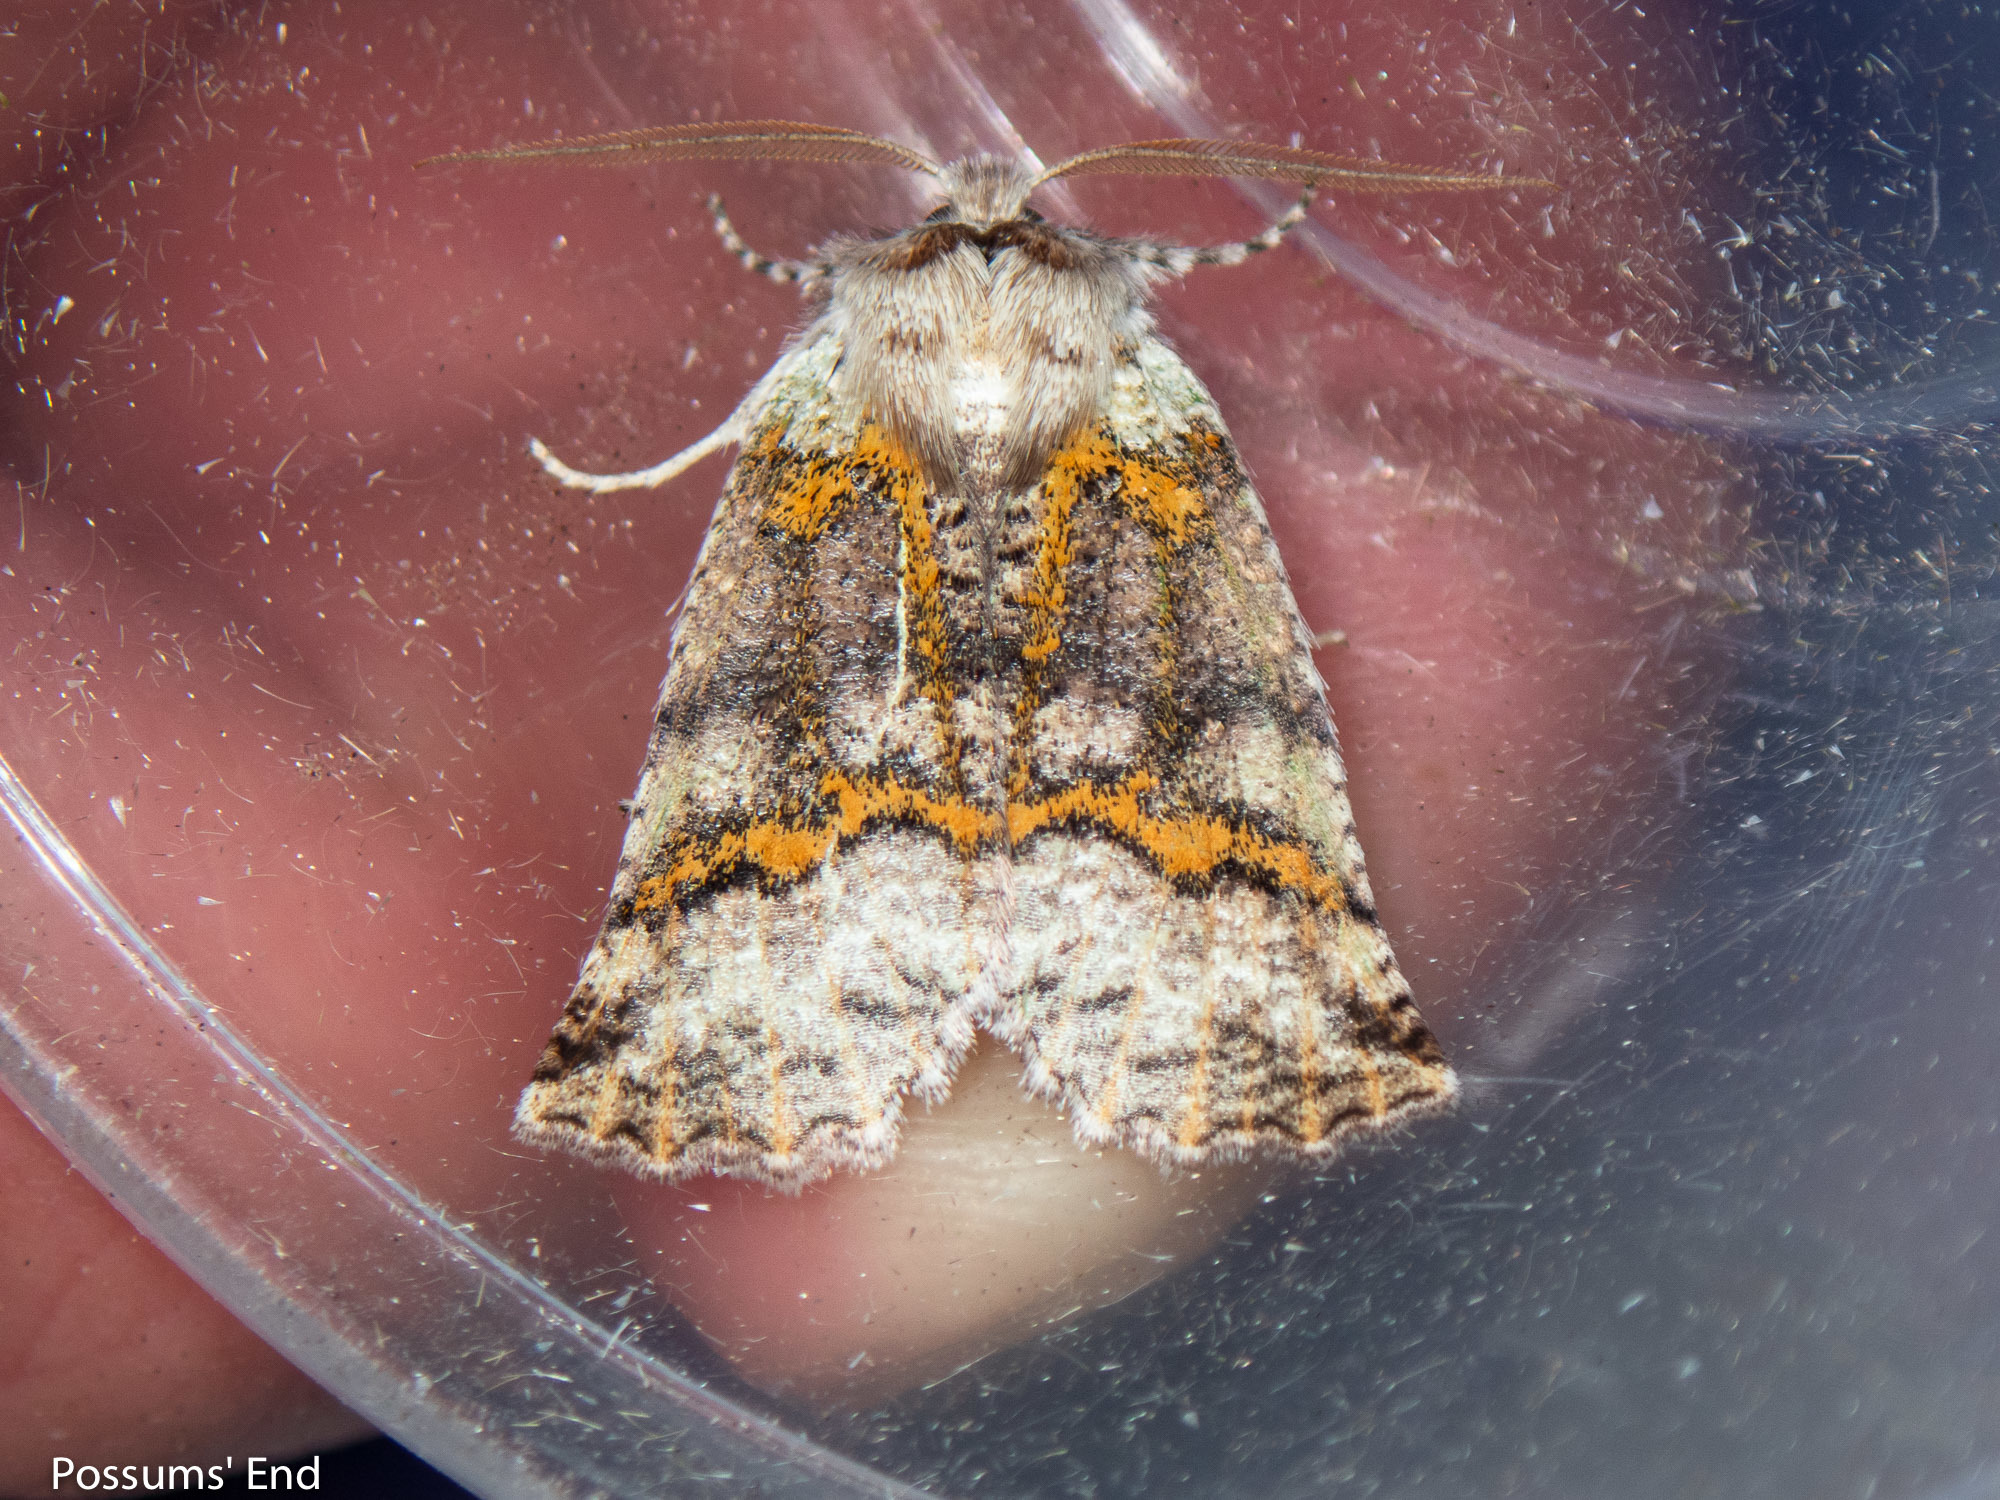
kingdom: Animalia
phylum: Arthropoda
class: Insecta
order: Lepidoptera
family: Geometridae
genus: Declana
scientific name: Declana floccosa
